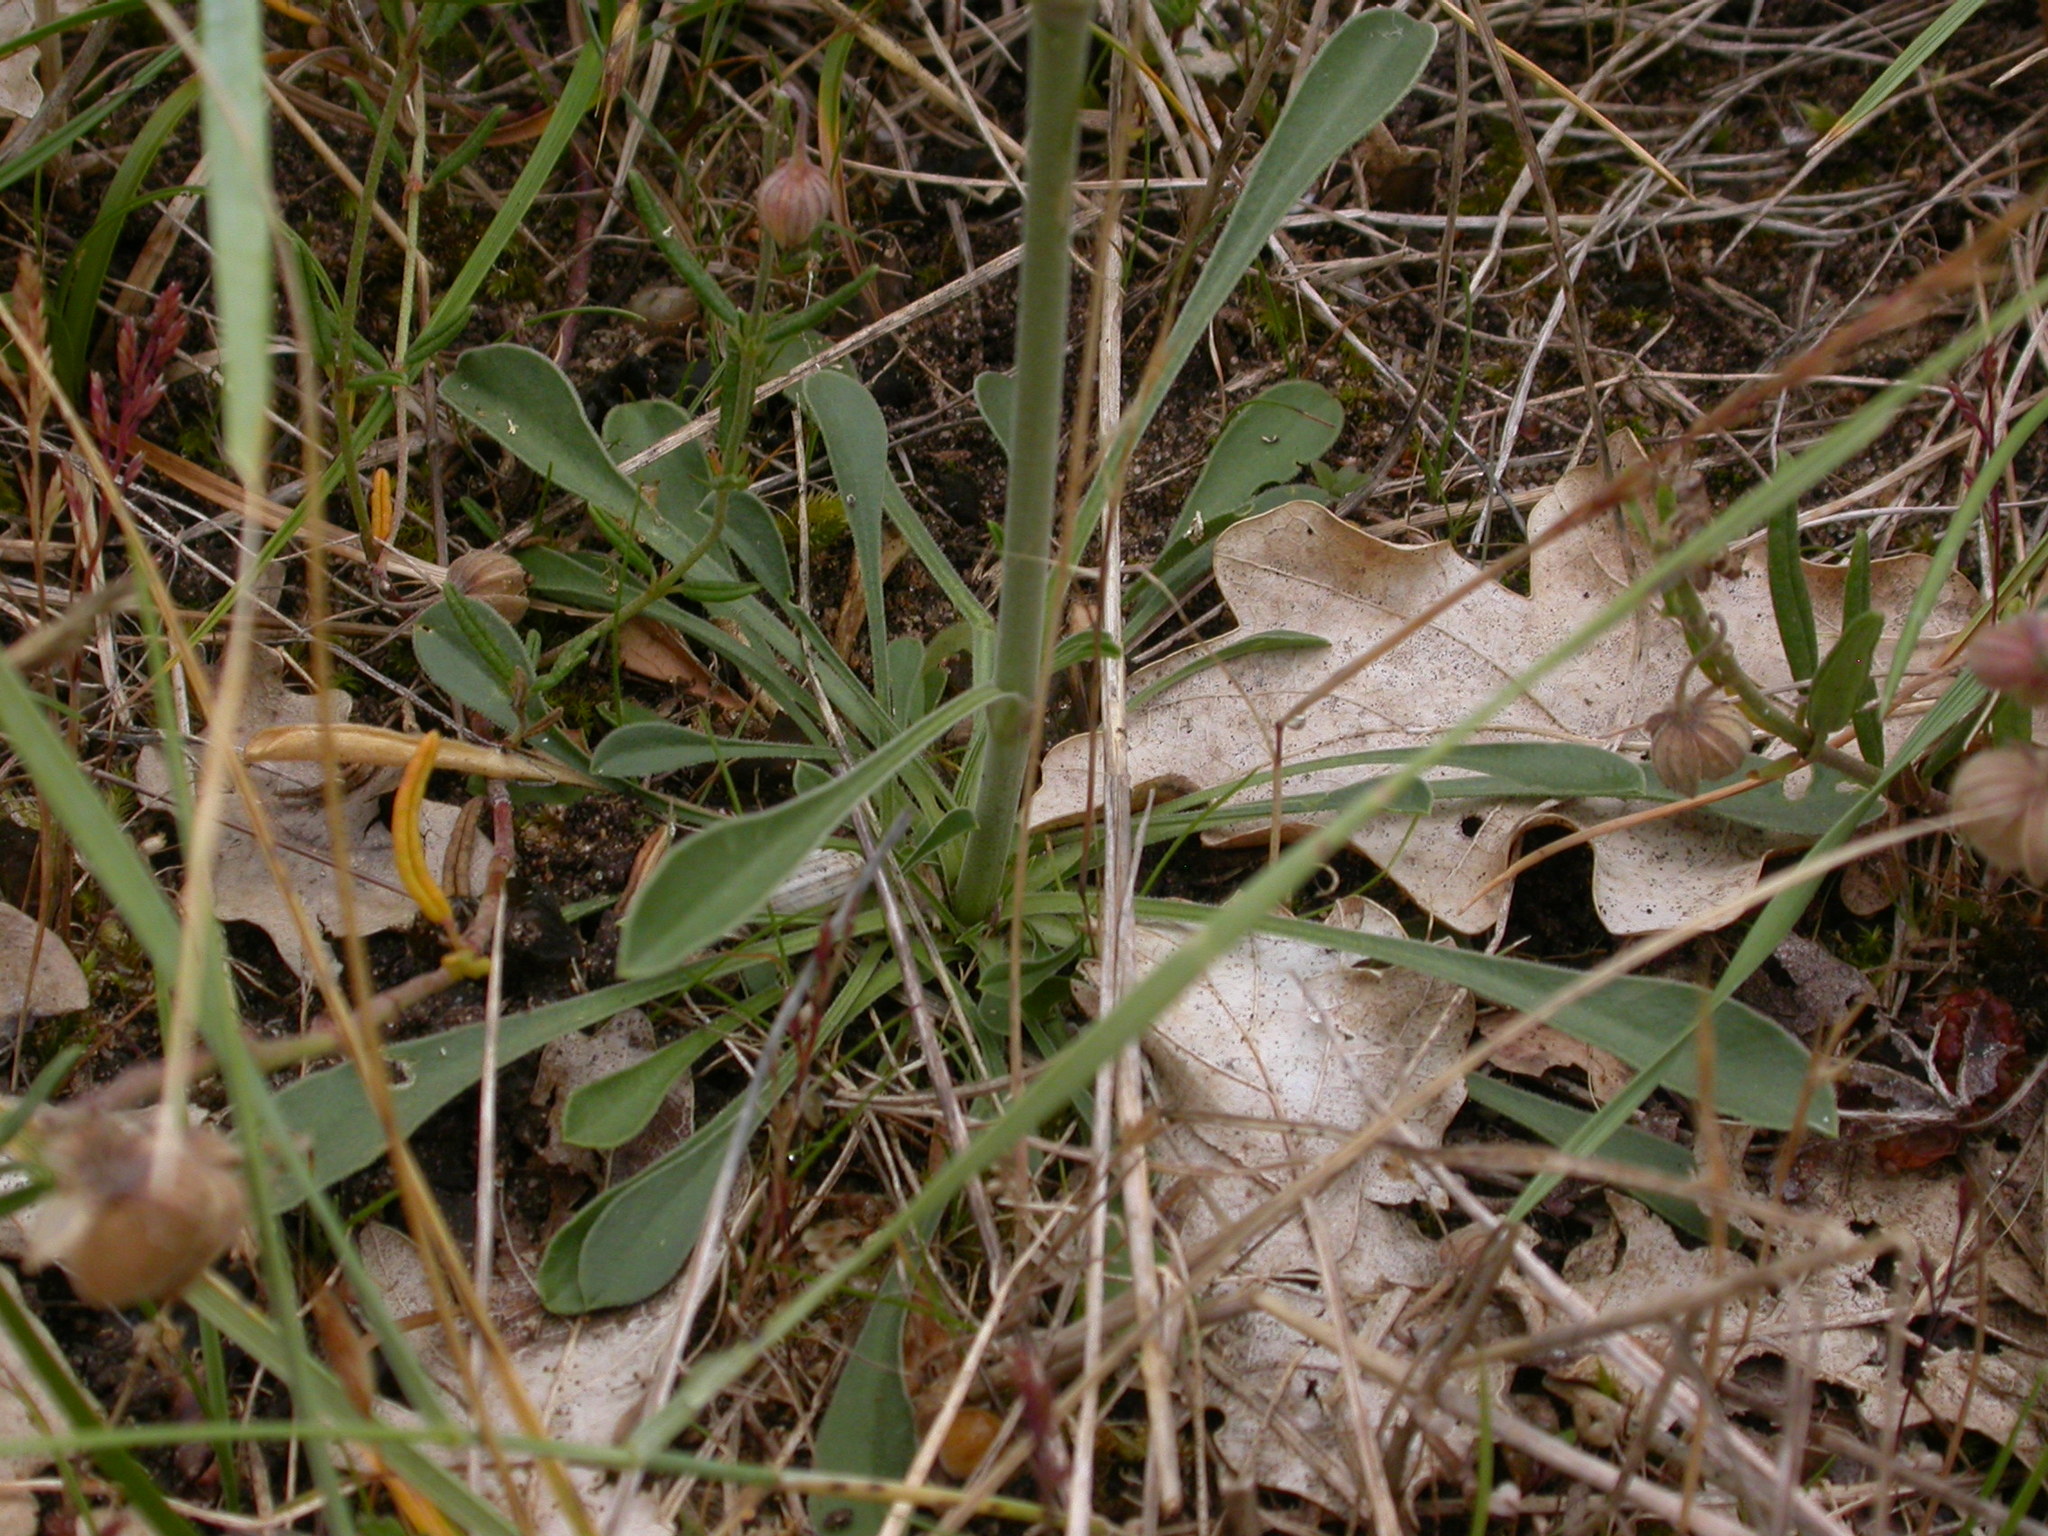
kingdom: Plantae
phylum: Tracheophyta
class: Magnoliopsida
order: Caryophyllales
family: Caryophyllaceae
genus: Silene
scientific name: Silene otites
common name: Spanish catchfly
